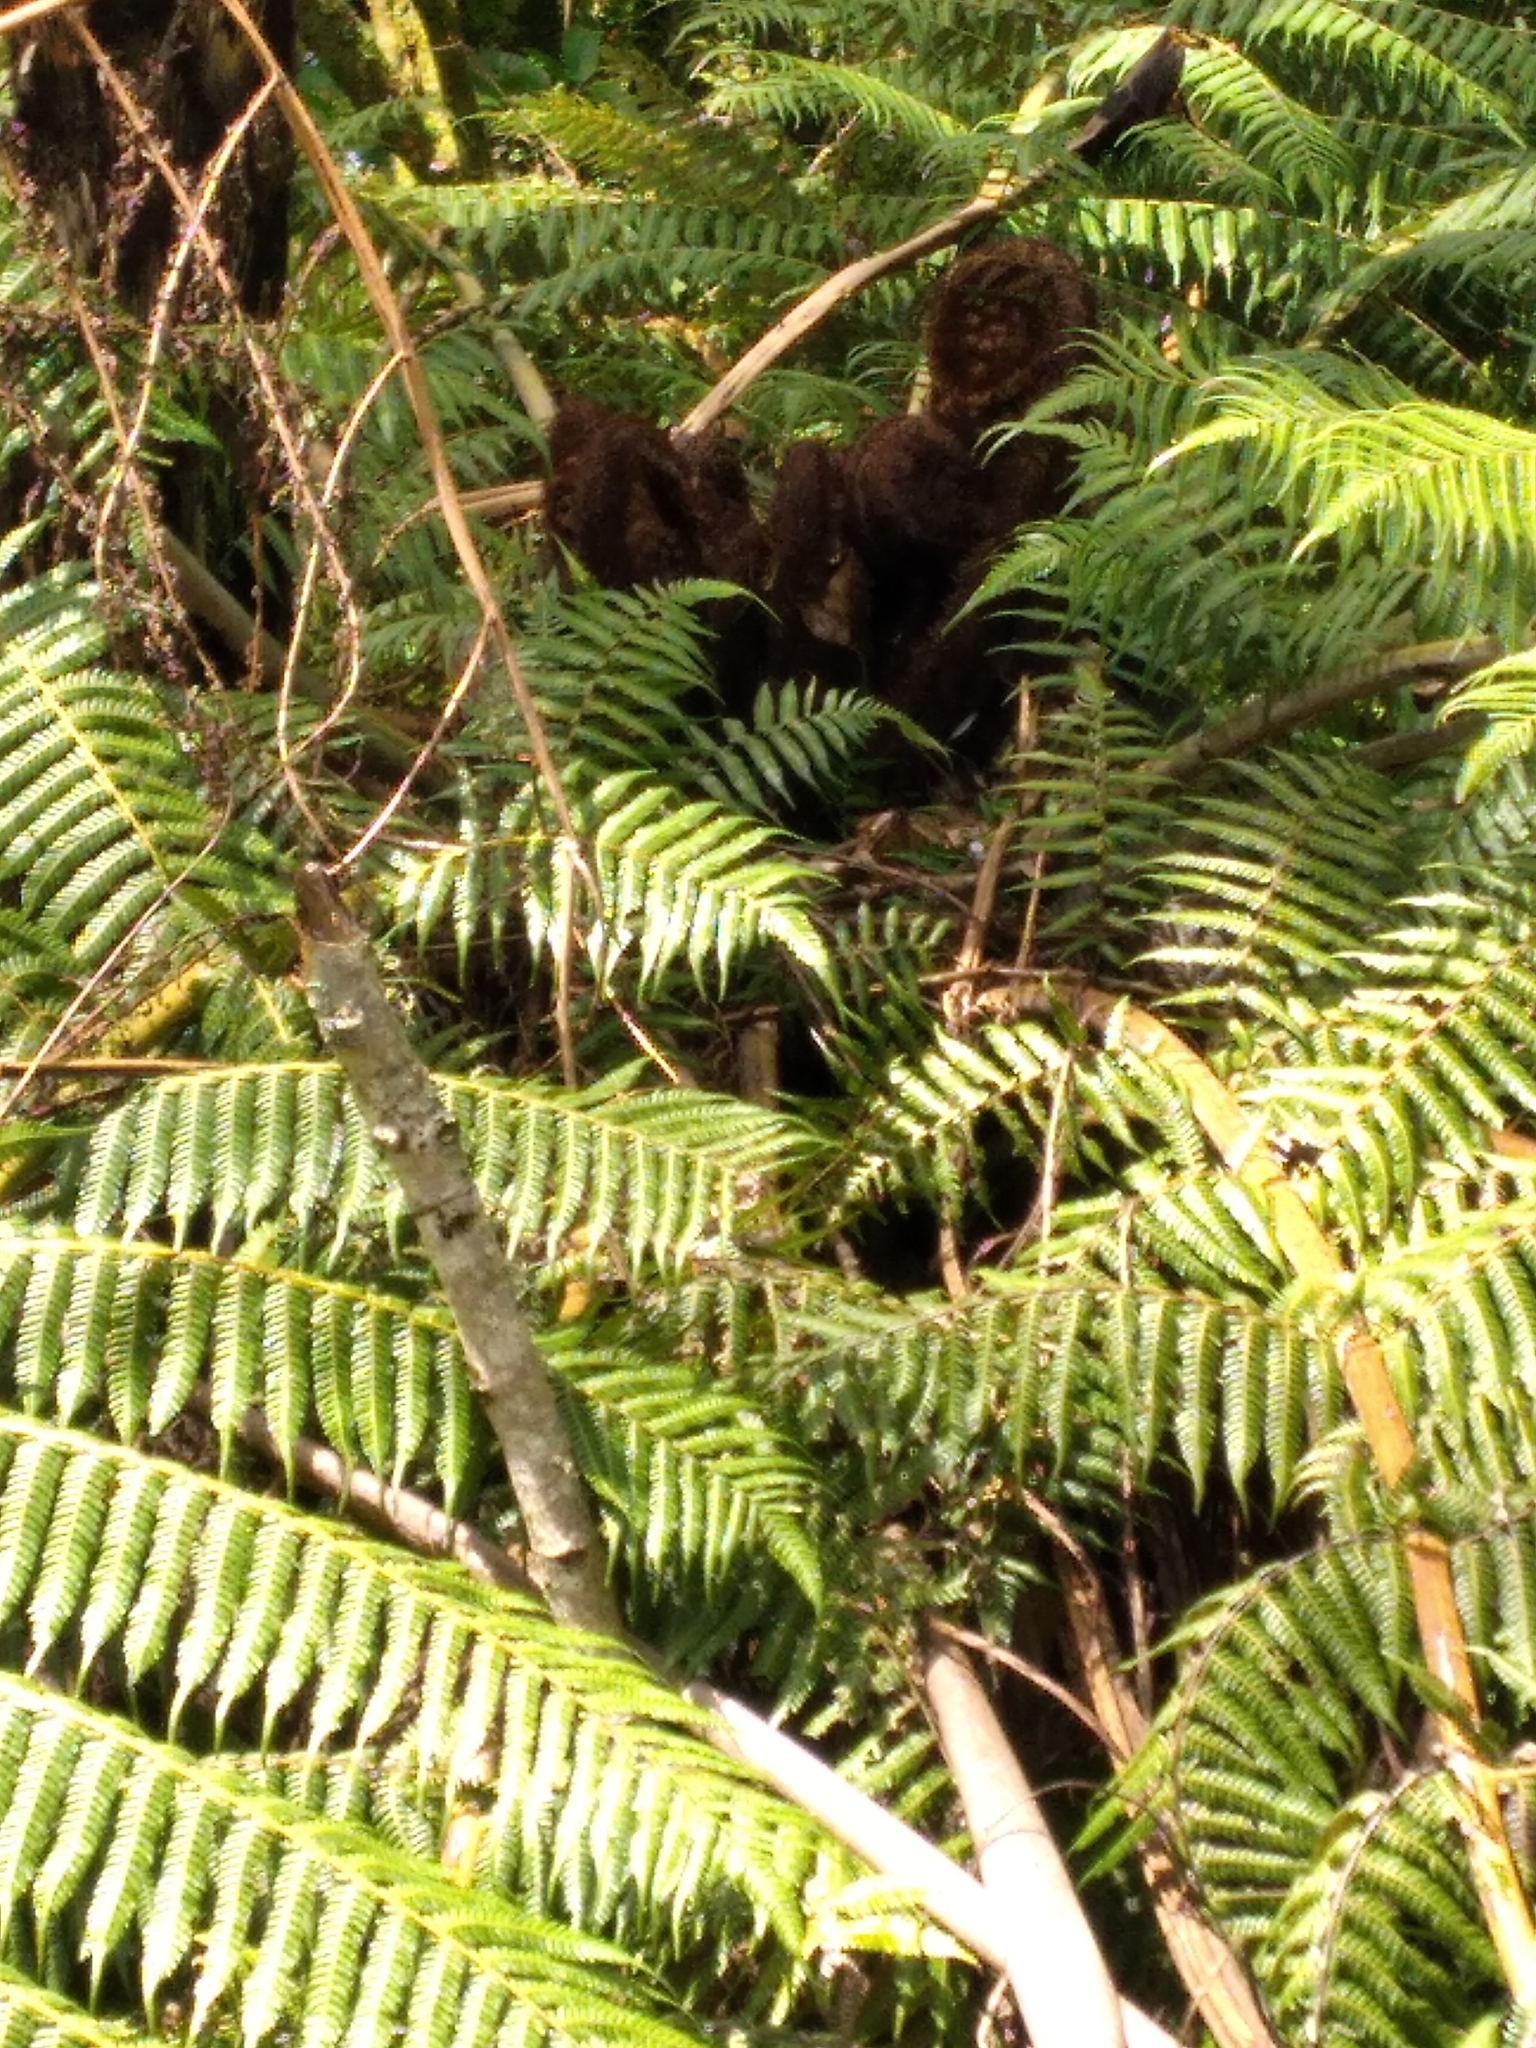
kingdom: Plantae
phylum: Tracheophyta
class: Polypodiopsida
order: Cyatheales
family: Cyatheaceae
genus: Alsophila
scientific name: Alsophila dealbata
